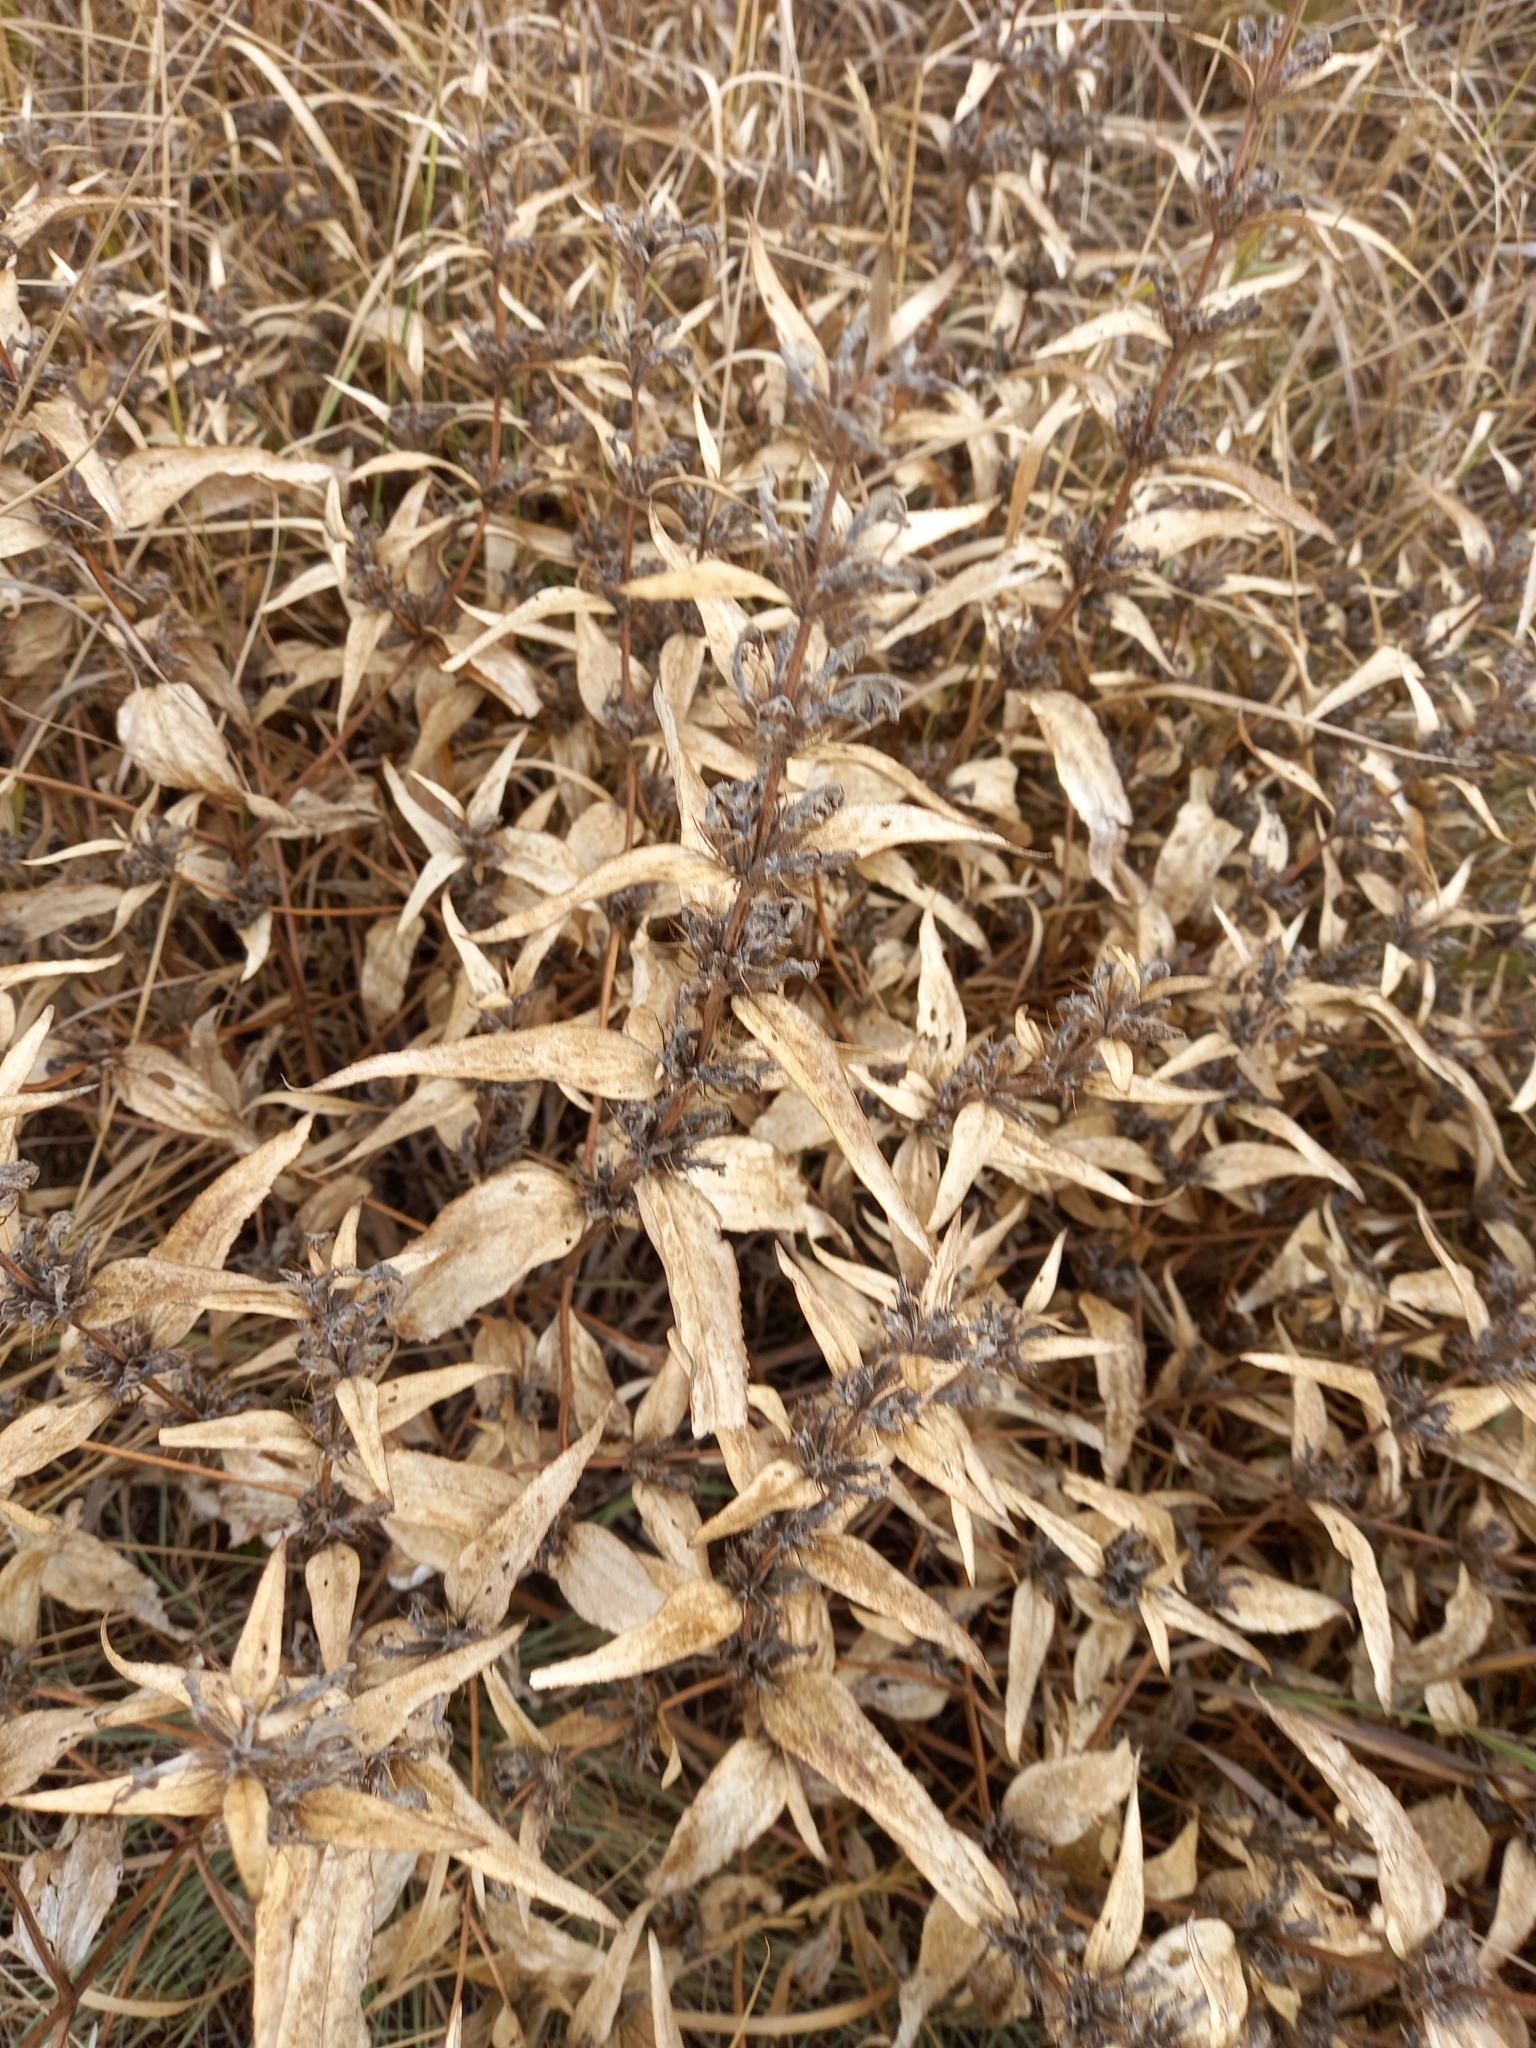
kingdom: Plantae
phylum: Tracheophyta
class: Magnoliopsida
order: Lamiales
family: Lamiaceae
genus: Phlomis
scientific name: Phlomis herba-venti
